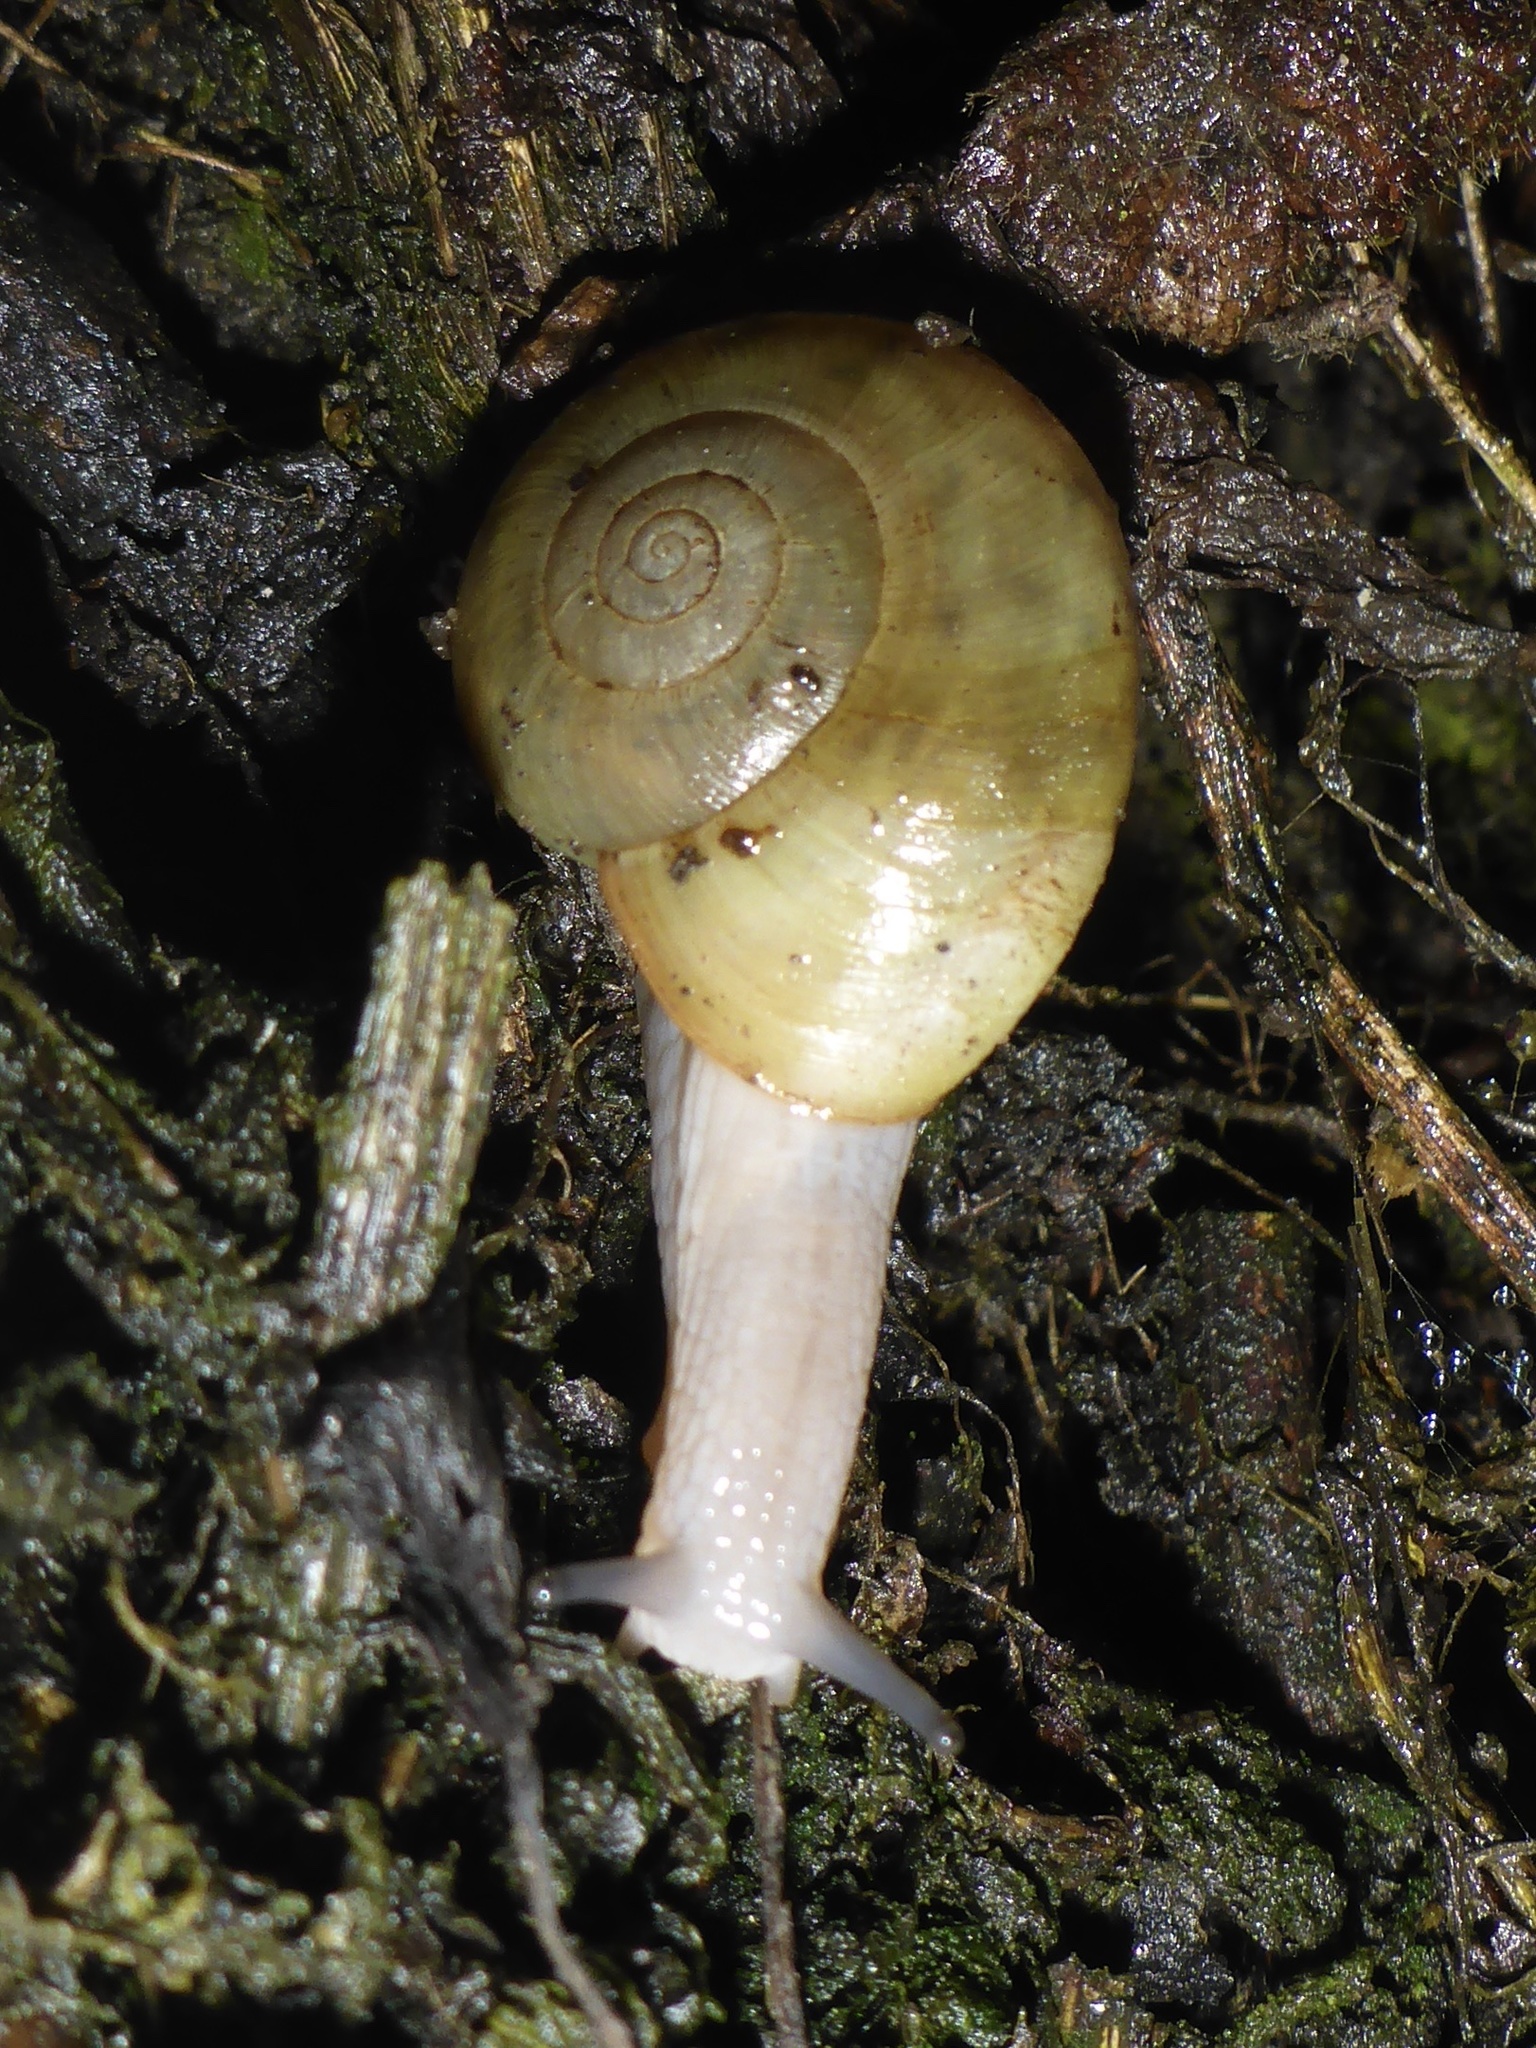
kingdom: Animalia
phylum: Mollusca
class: Gastropoda
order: Stylommatophora
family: Haplotrematidae
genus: Haplotrema
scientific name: Haplotrema minimum
